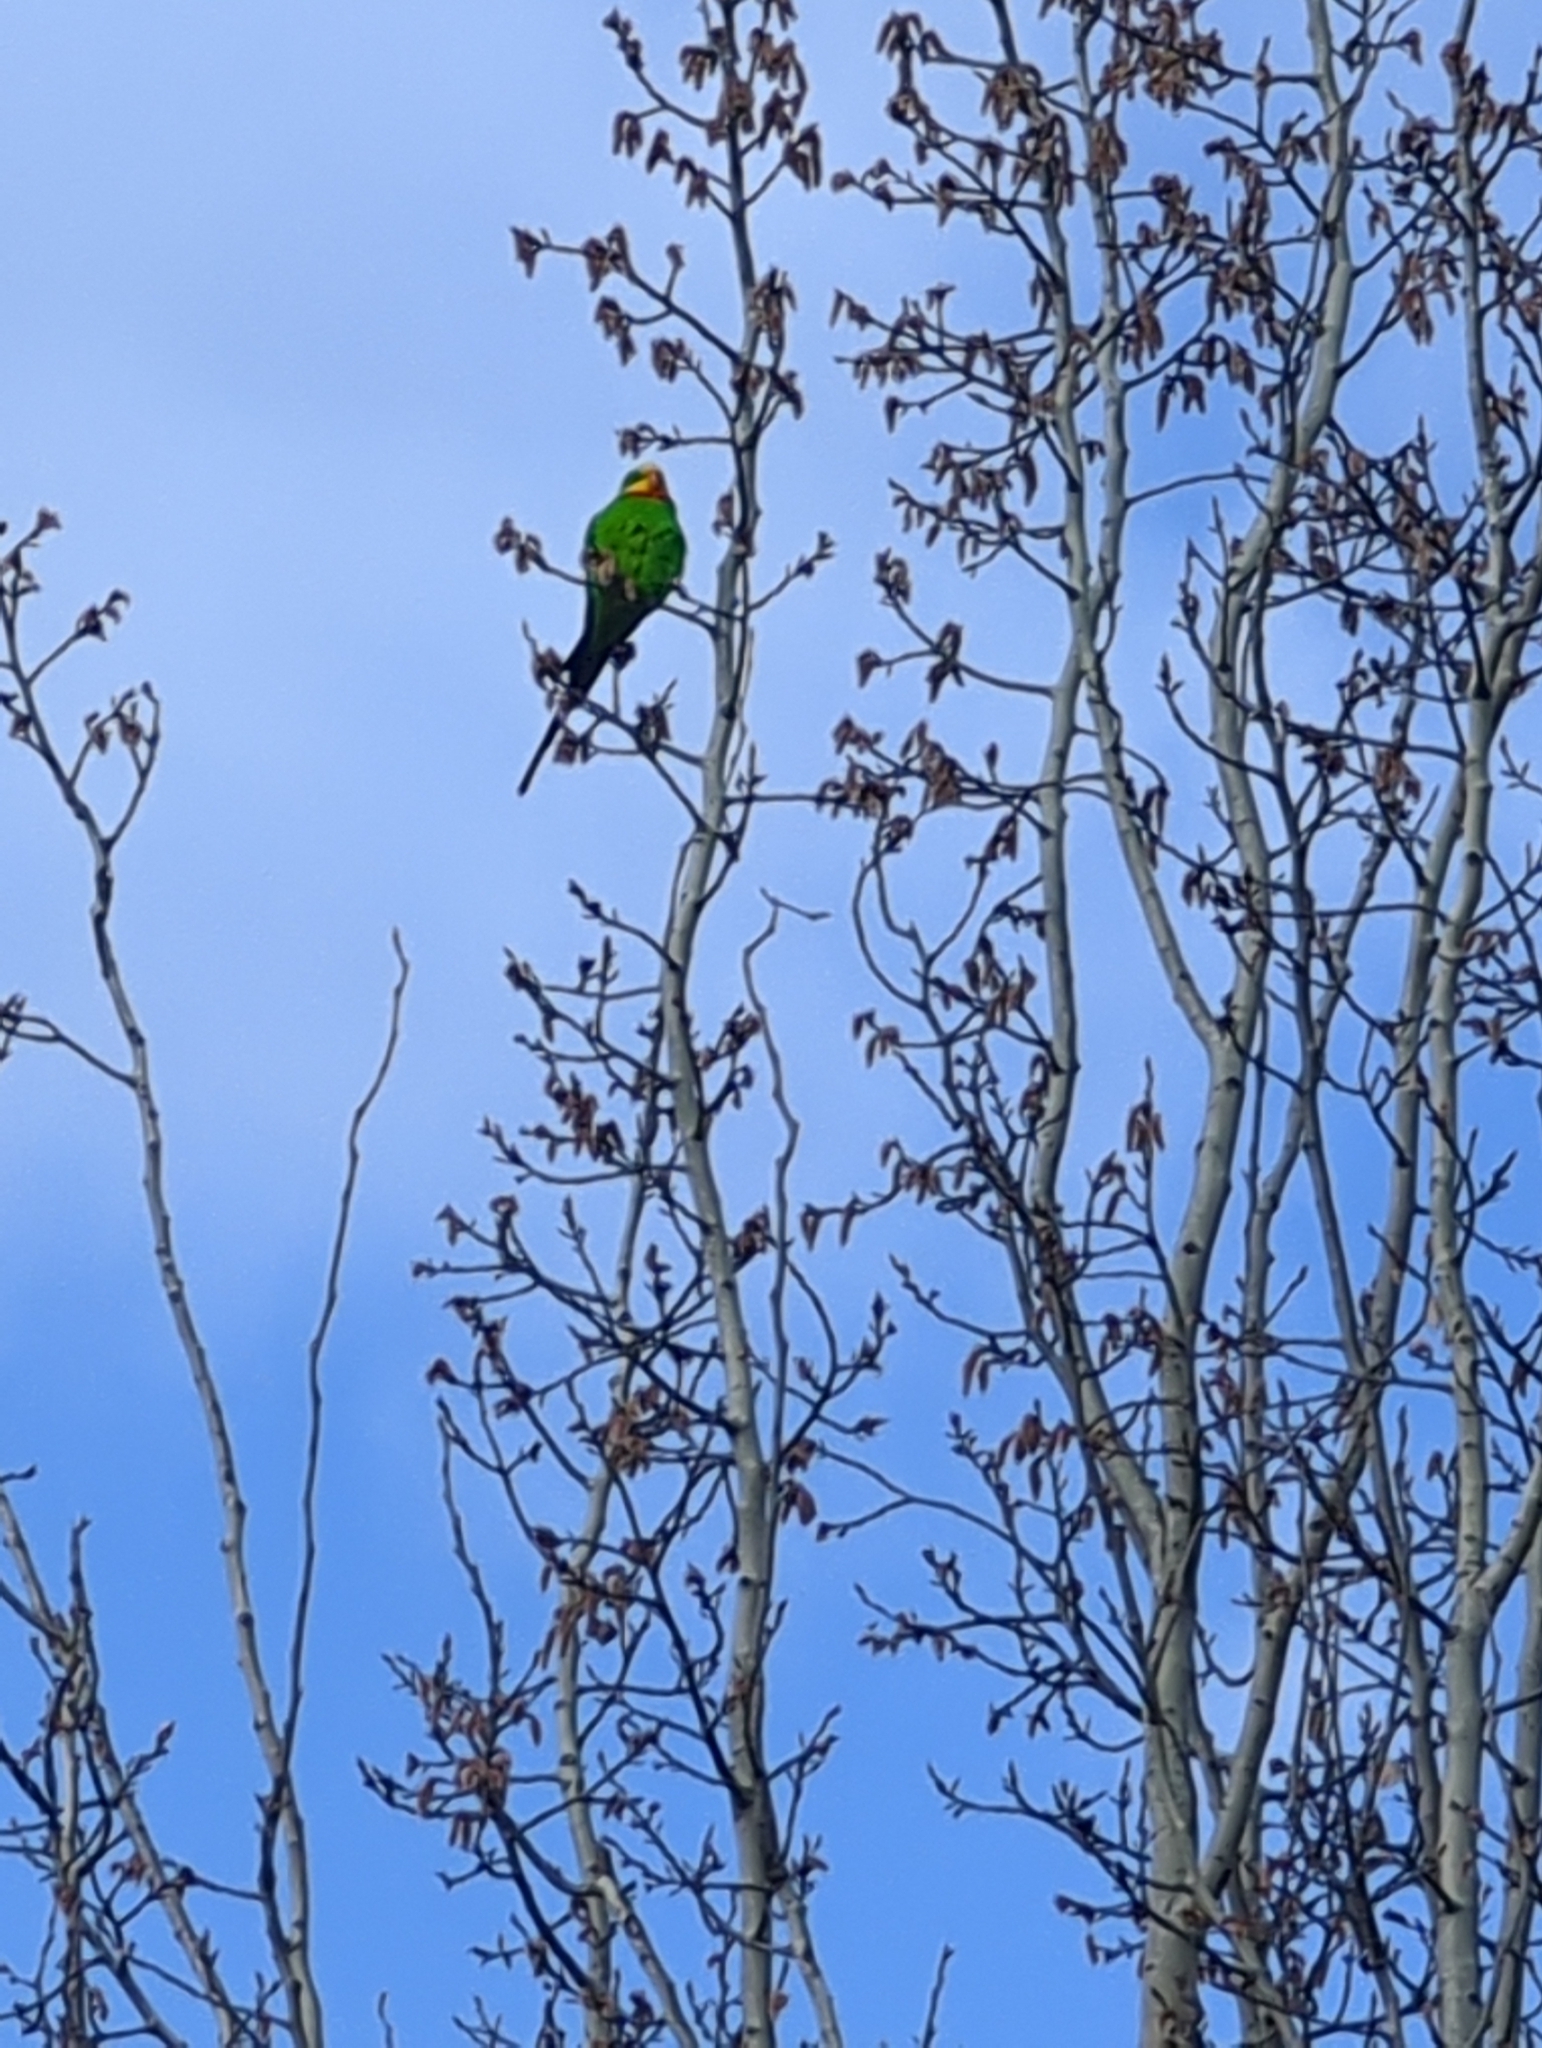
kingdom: Animalia
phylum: Chordata
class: Aves
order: Psittaciformes
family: Psittacidae
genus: Polytelis
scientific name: Polytelis swainsonii
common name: Superb parrot
